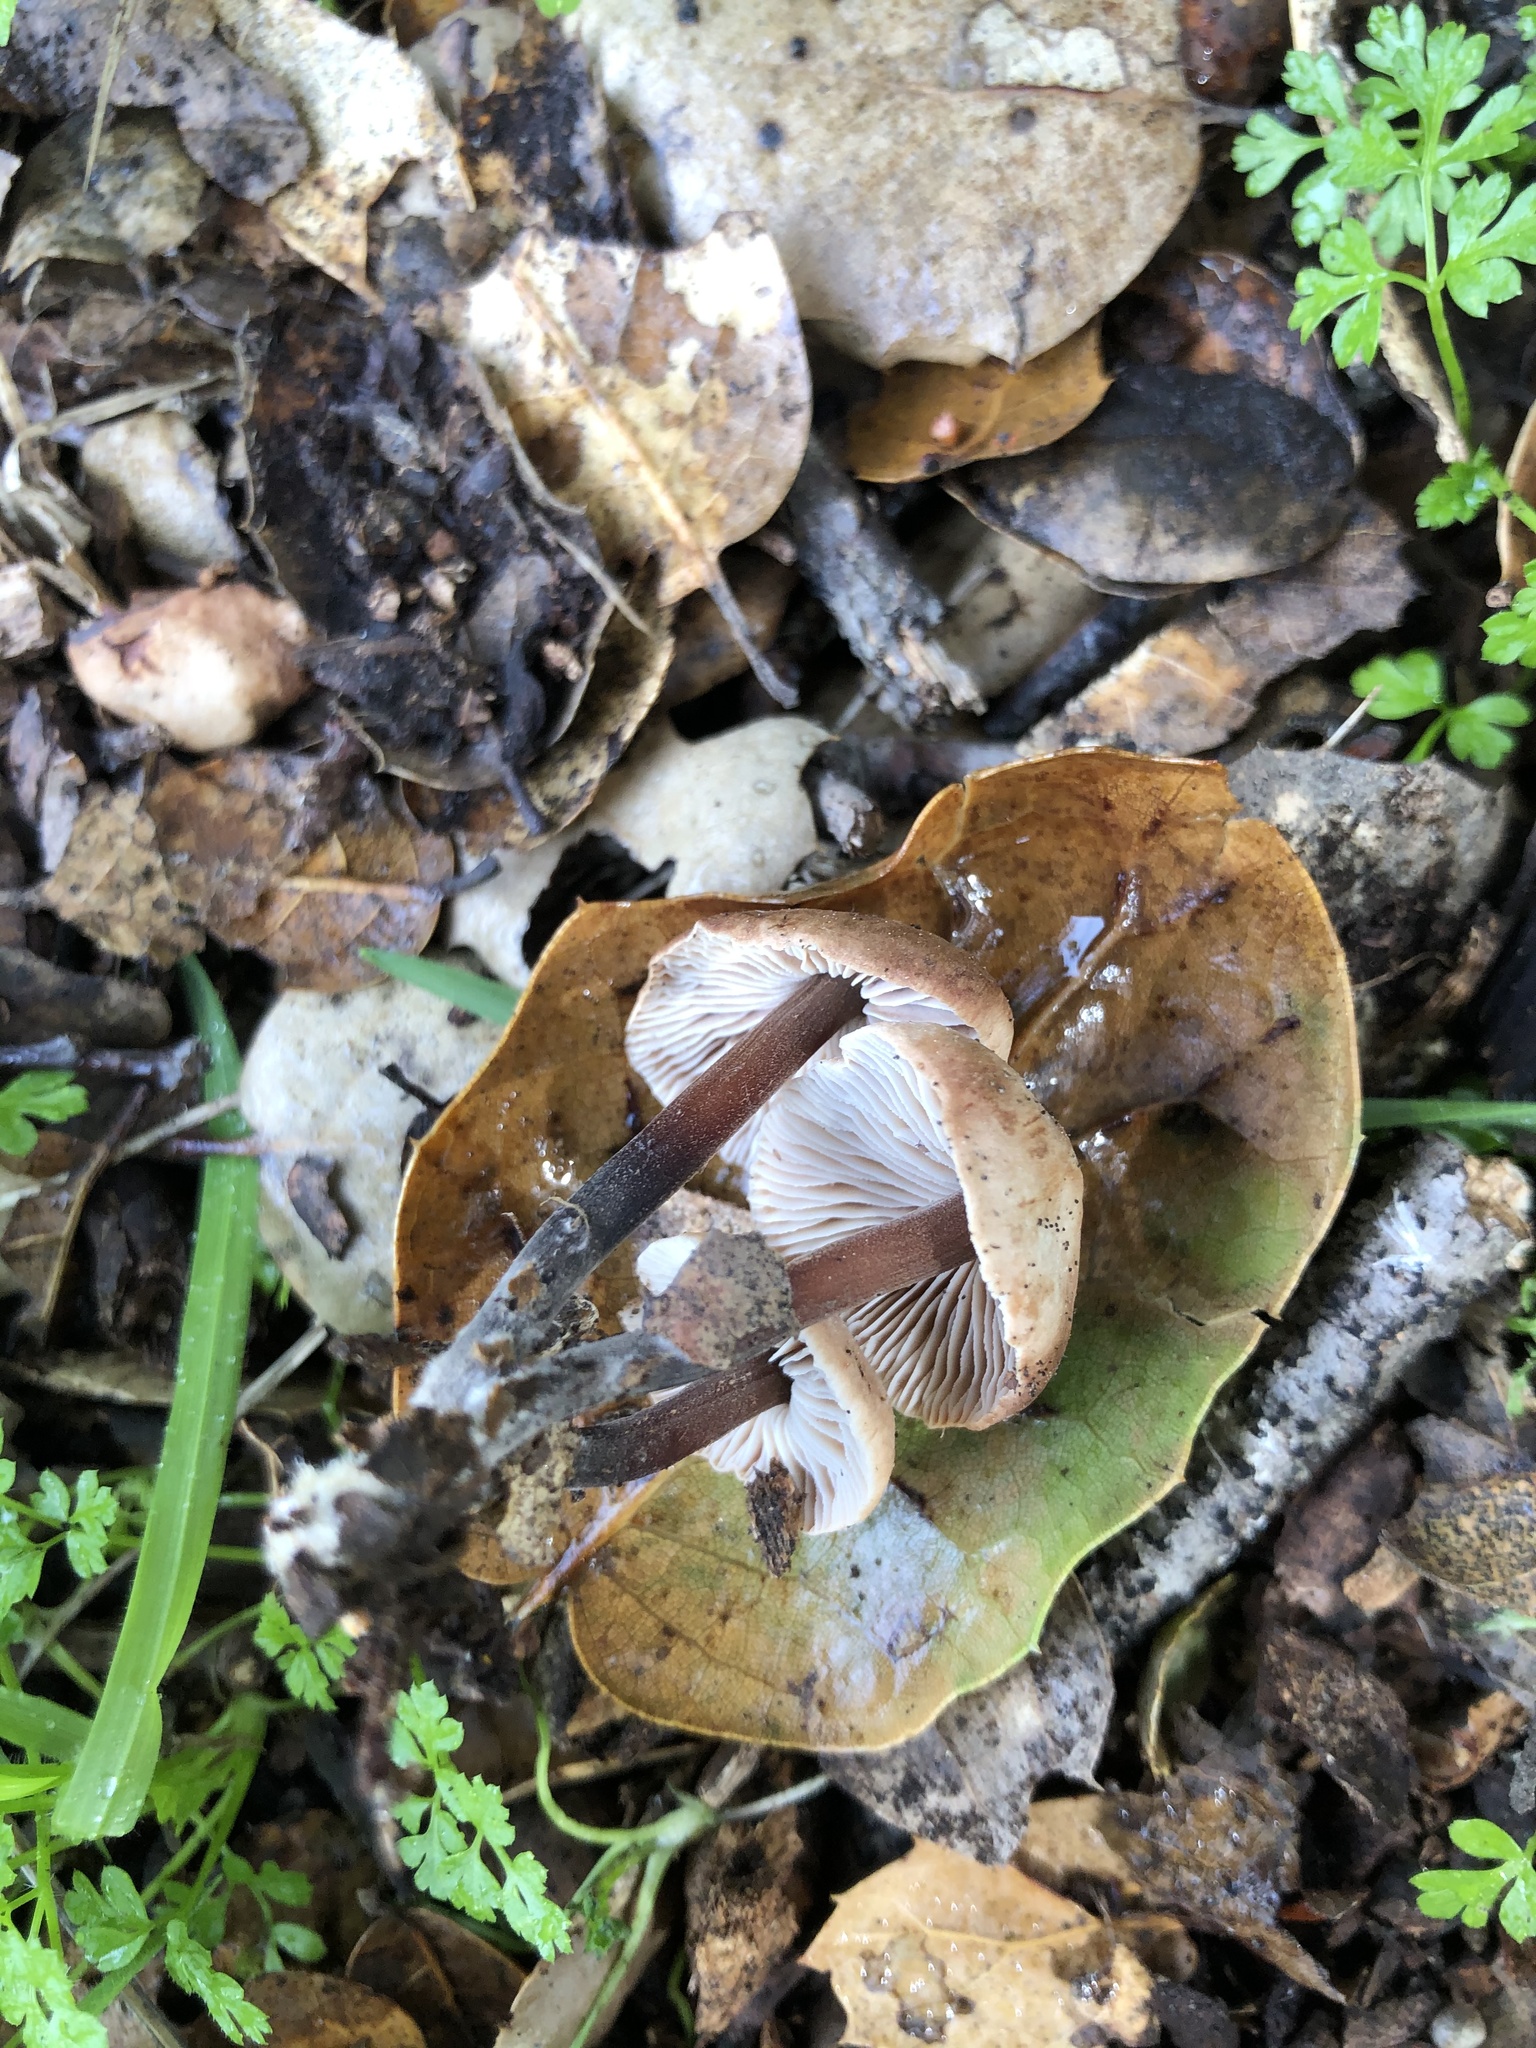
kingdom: Fungi
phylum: Basidiomycota
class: Agaricomycetes
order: Agaricales
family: Omphalotaceae
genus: Gymnopus
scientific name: Gymnopus brassicolens
